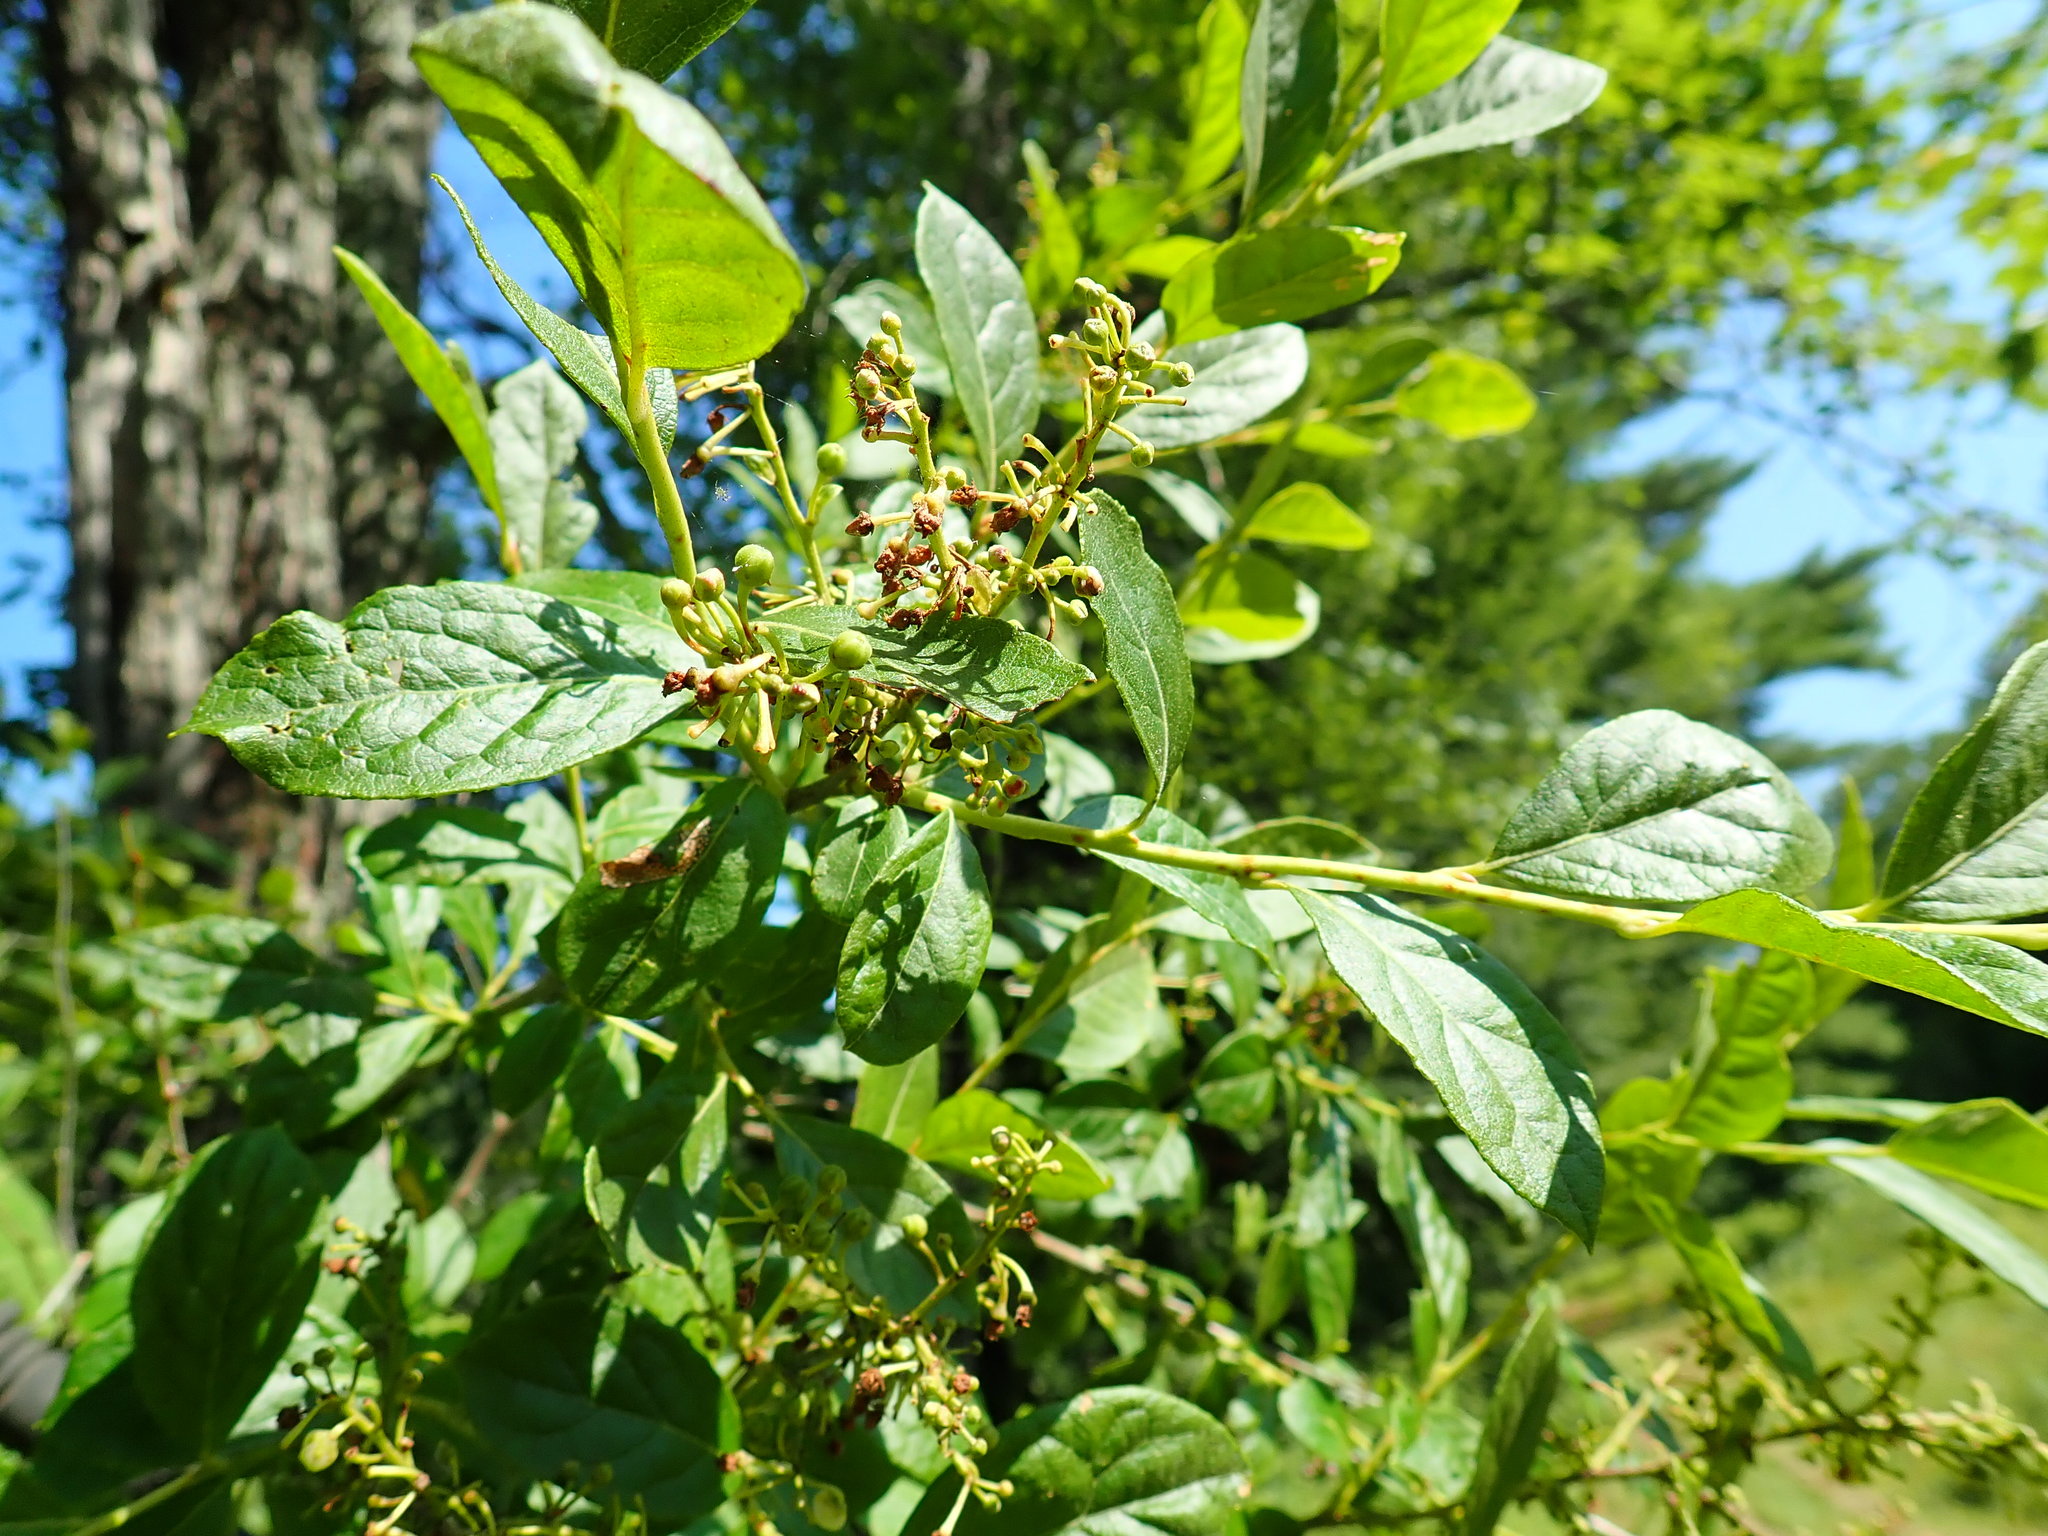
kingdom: Plantae
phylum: Tracheophyta
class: Magnoliopsida
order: Ericales
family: Ericaceae
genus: Lyonia
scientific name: Lyonia ligustrina
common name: Maleberry
